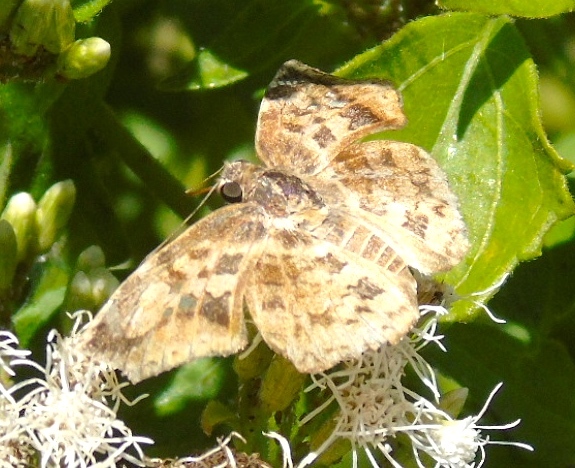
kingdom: Animalia
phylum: Arthropoda
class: Insecta
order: Lepidoptera
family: Hesperiidae
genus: Pyrginae
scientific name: Pyrginae
